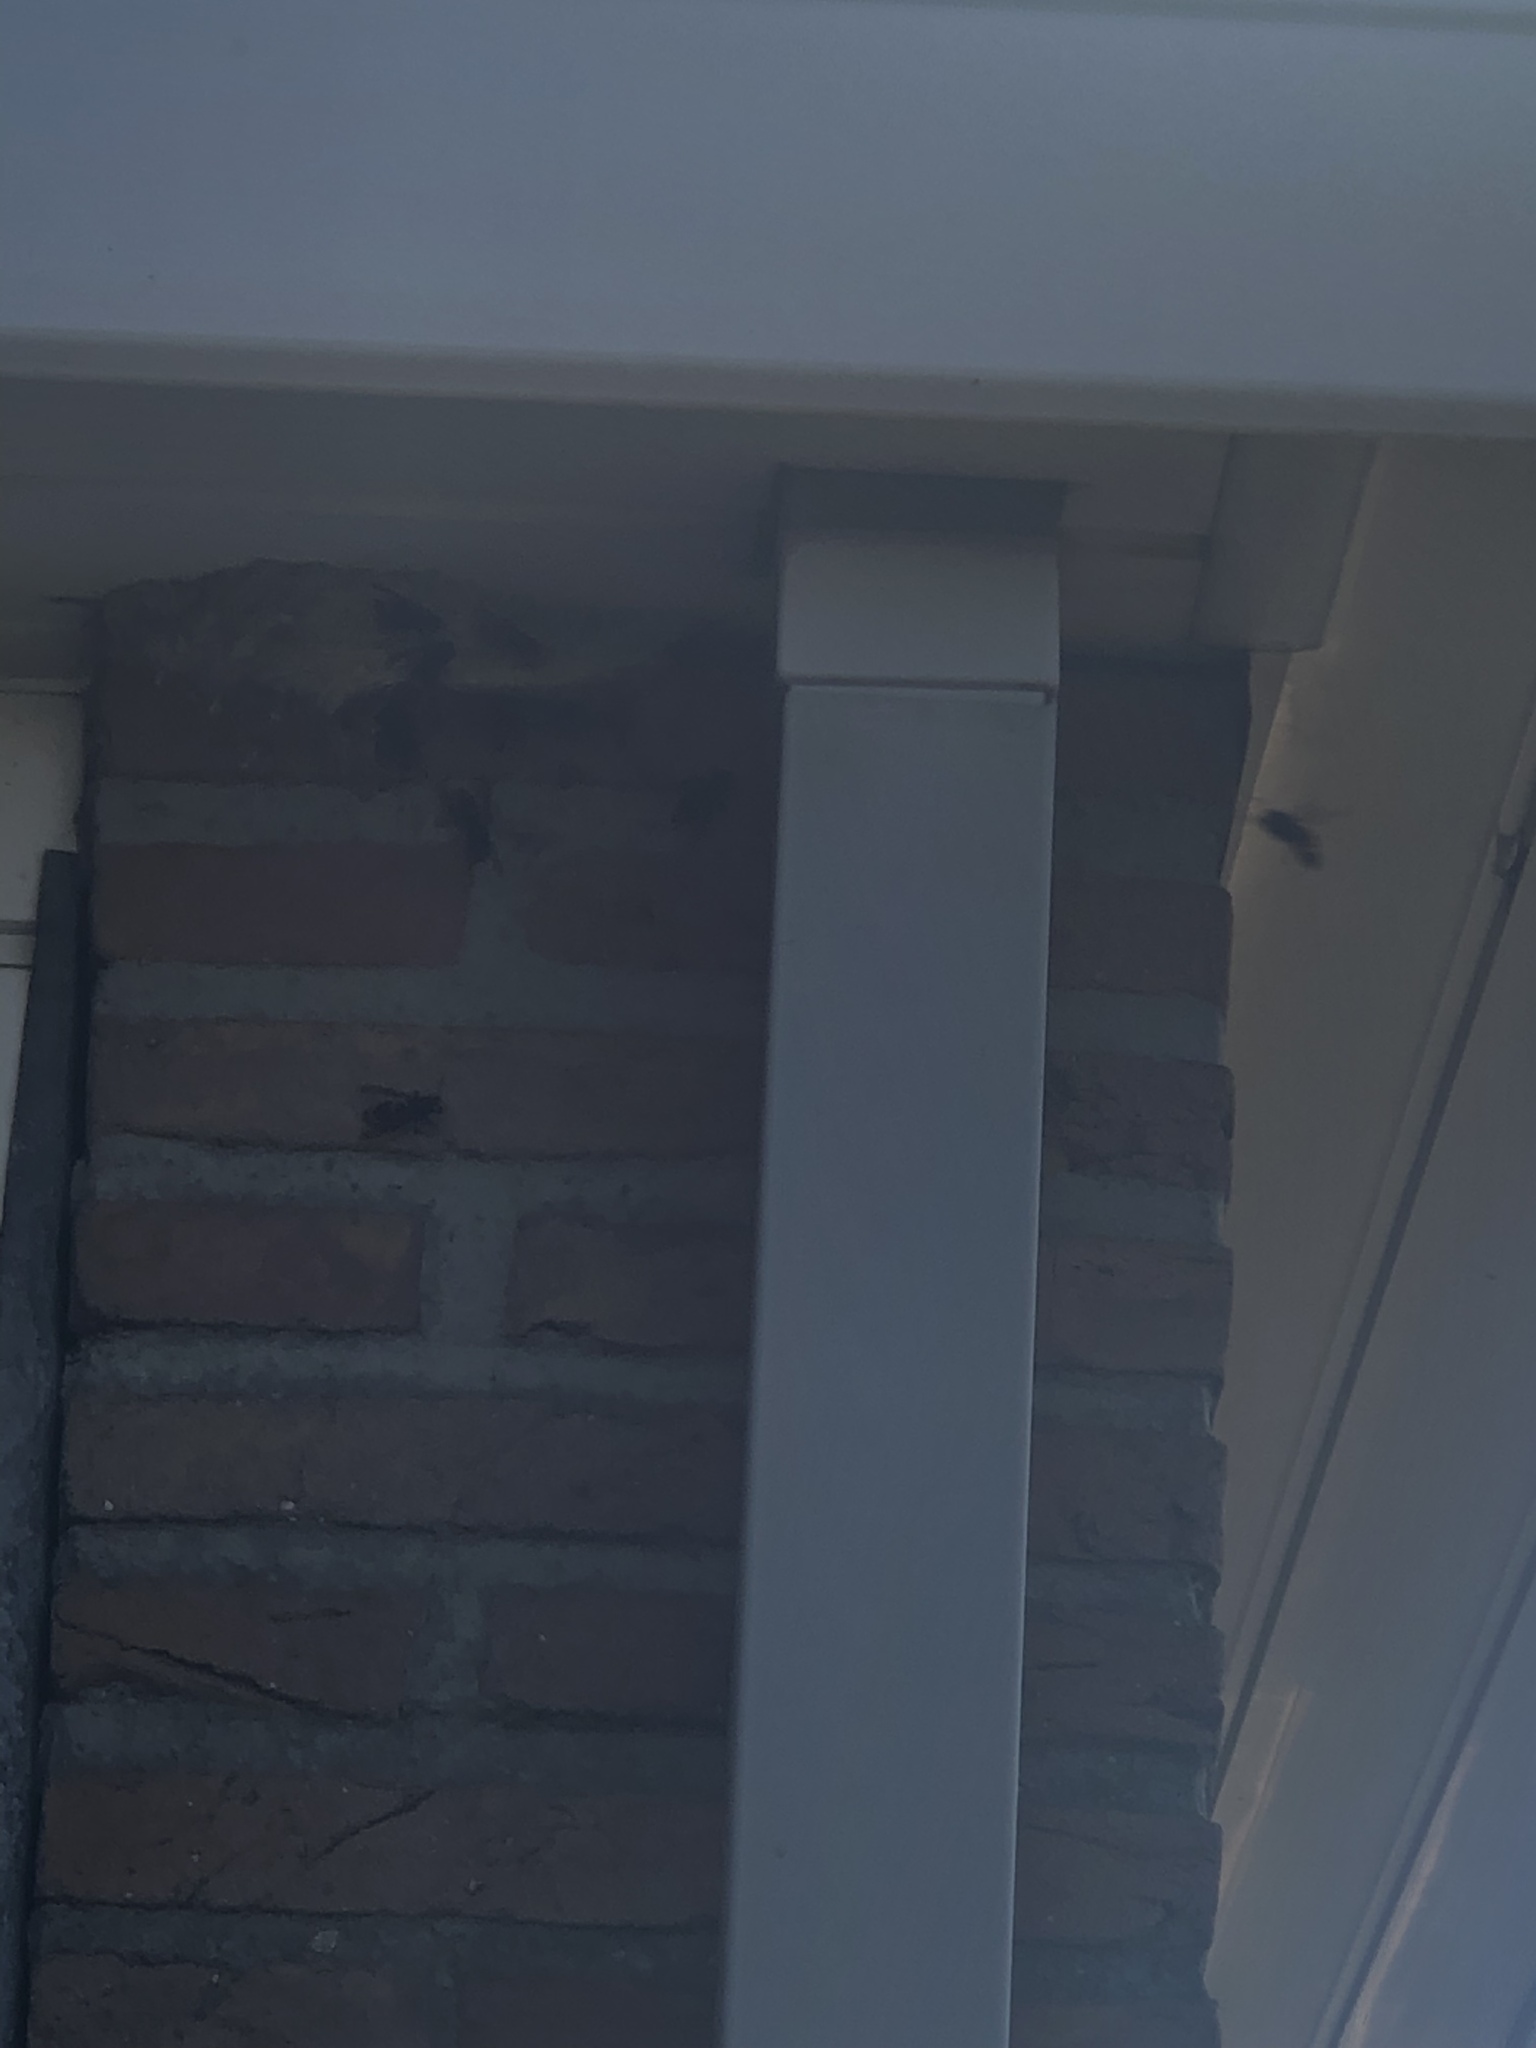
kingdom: Animalia
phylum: Arthropoda
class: Insecta
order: Hymenoptera
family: Vespidae
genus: Vespa
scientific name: Vespa velutina
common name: Asian hornet
